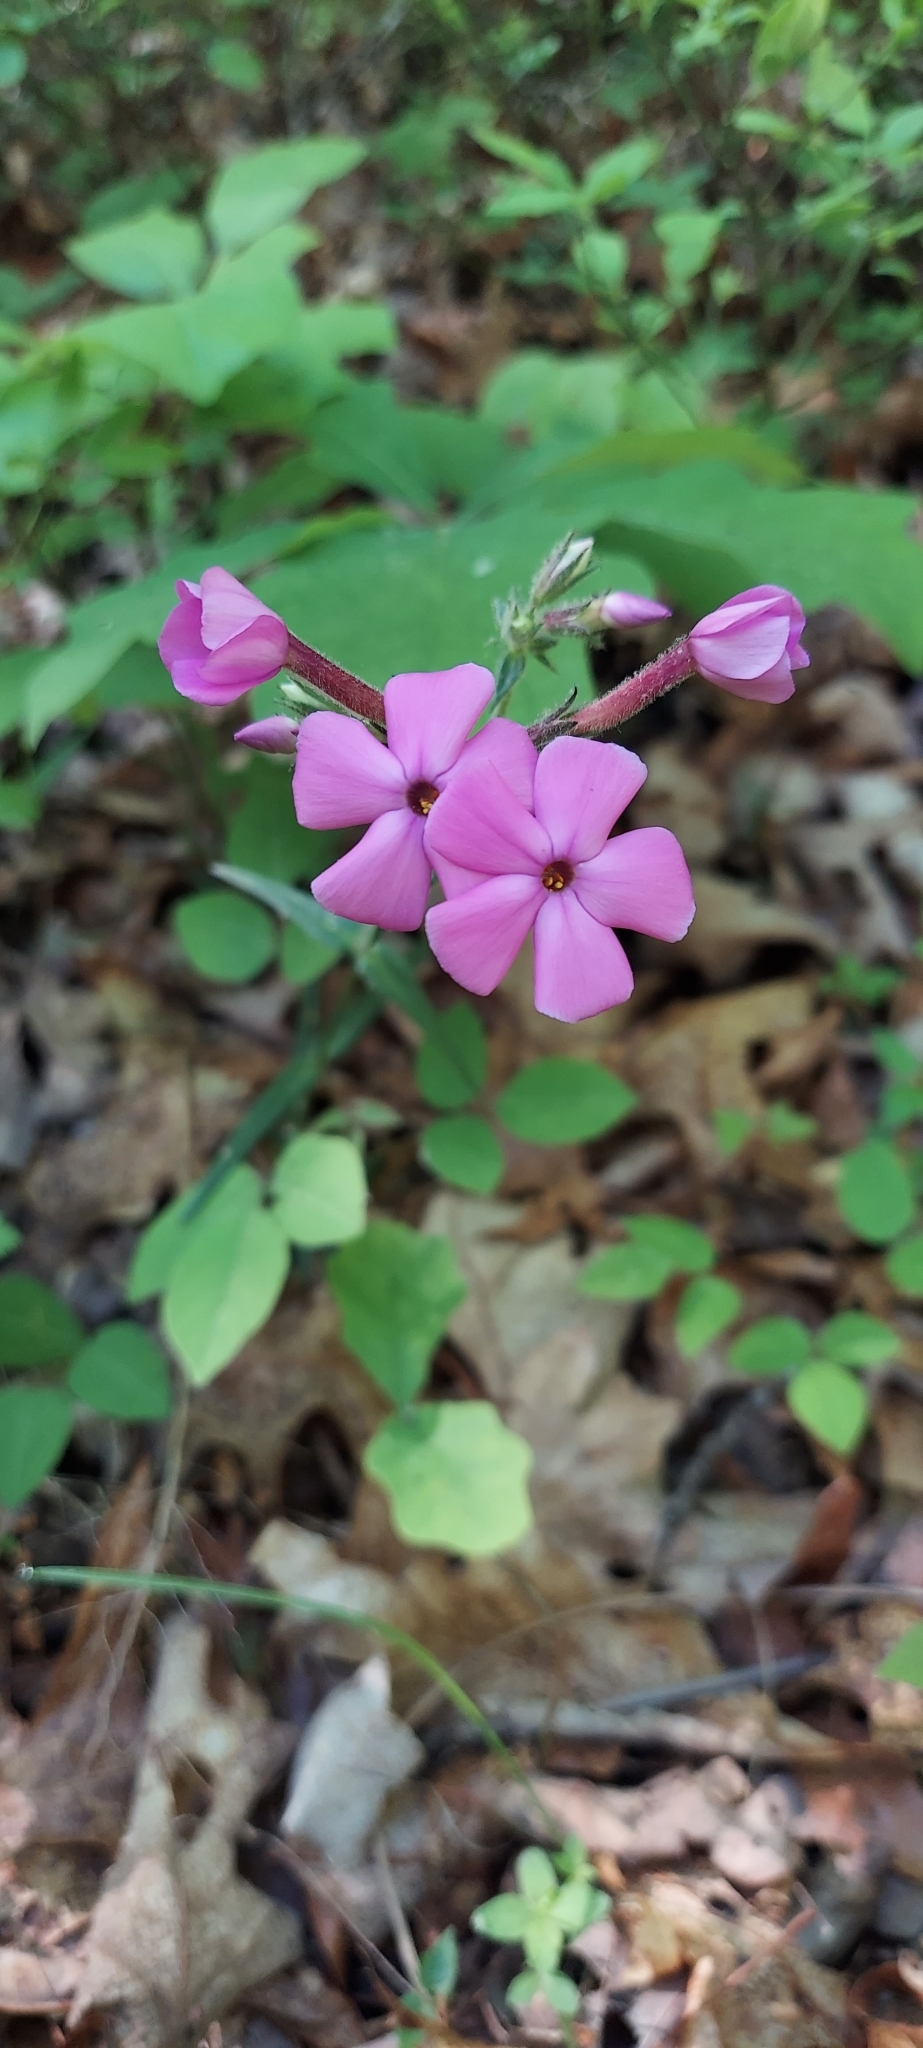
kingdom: Plantae
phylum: Tracheophyta
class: Magnoliopsida
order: Ericales
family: Polemoniaceae
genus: Phlox
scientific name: Phlox buckleyi
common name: Shale-barren phlox
